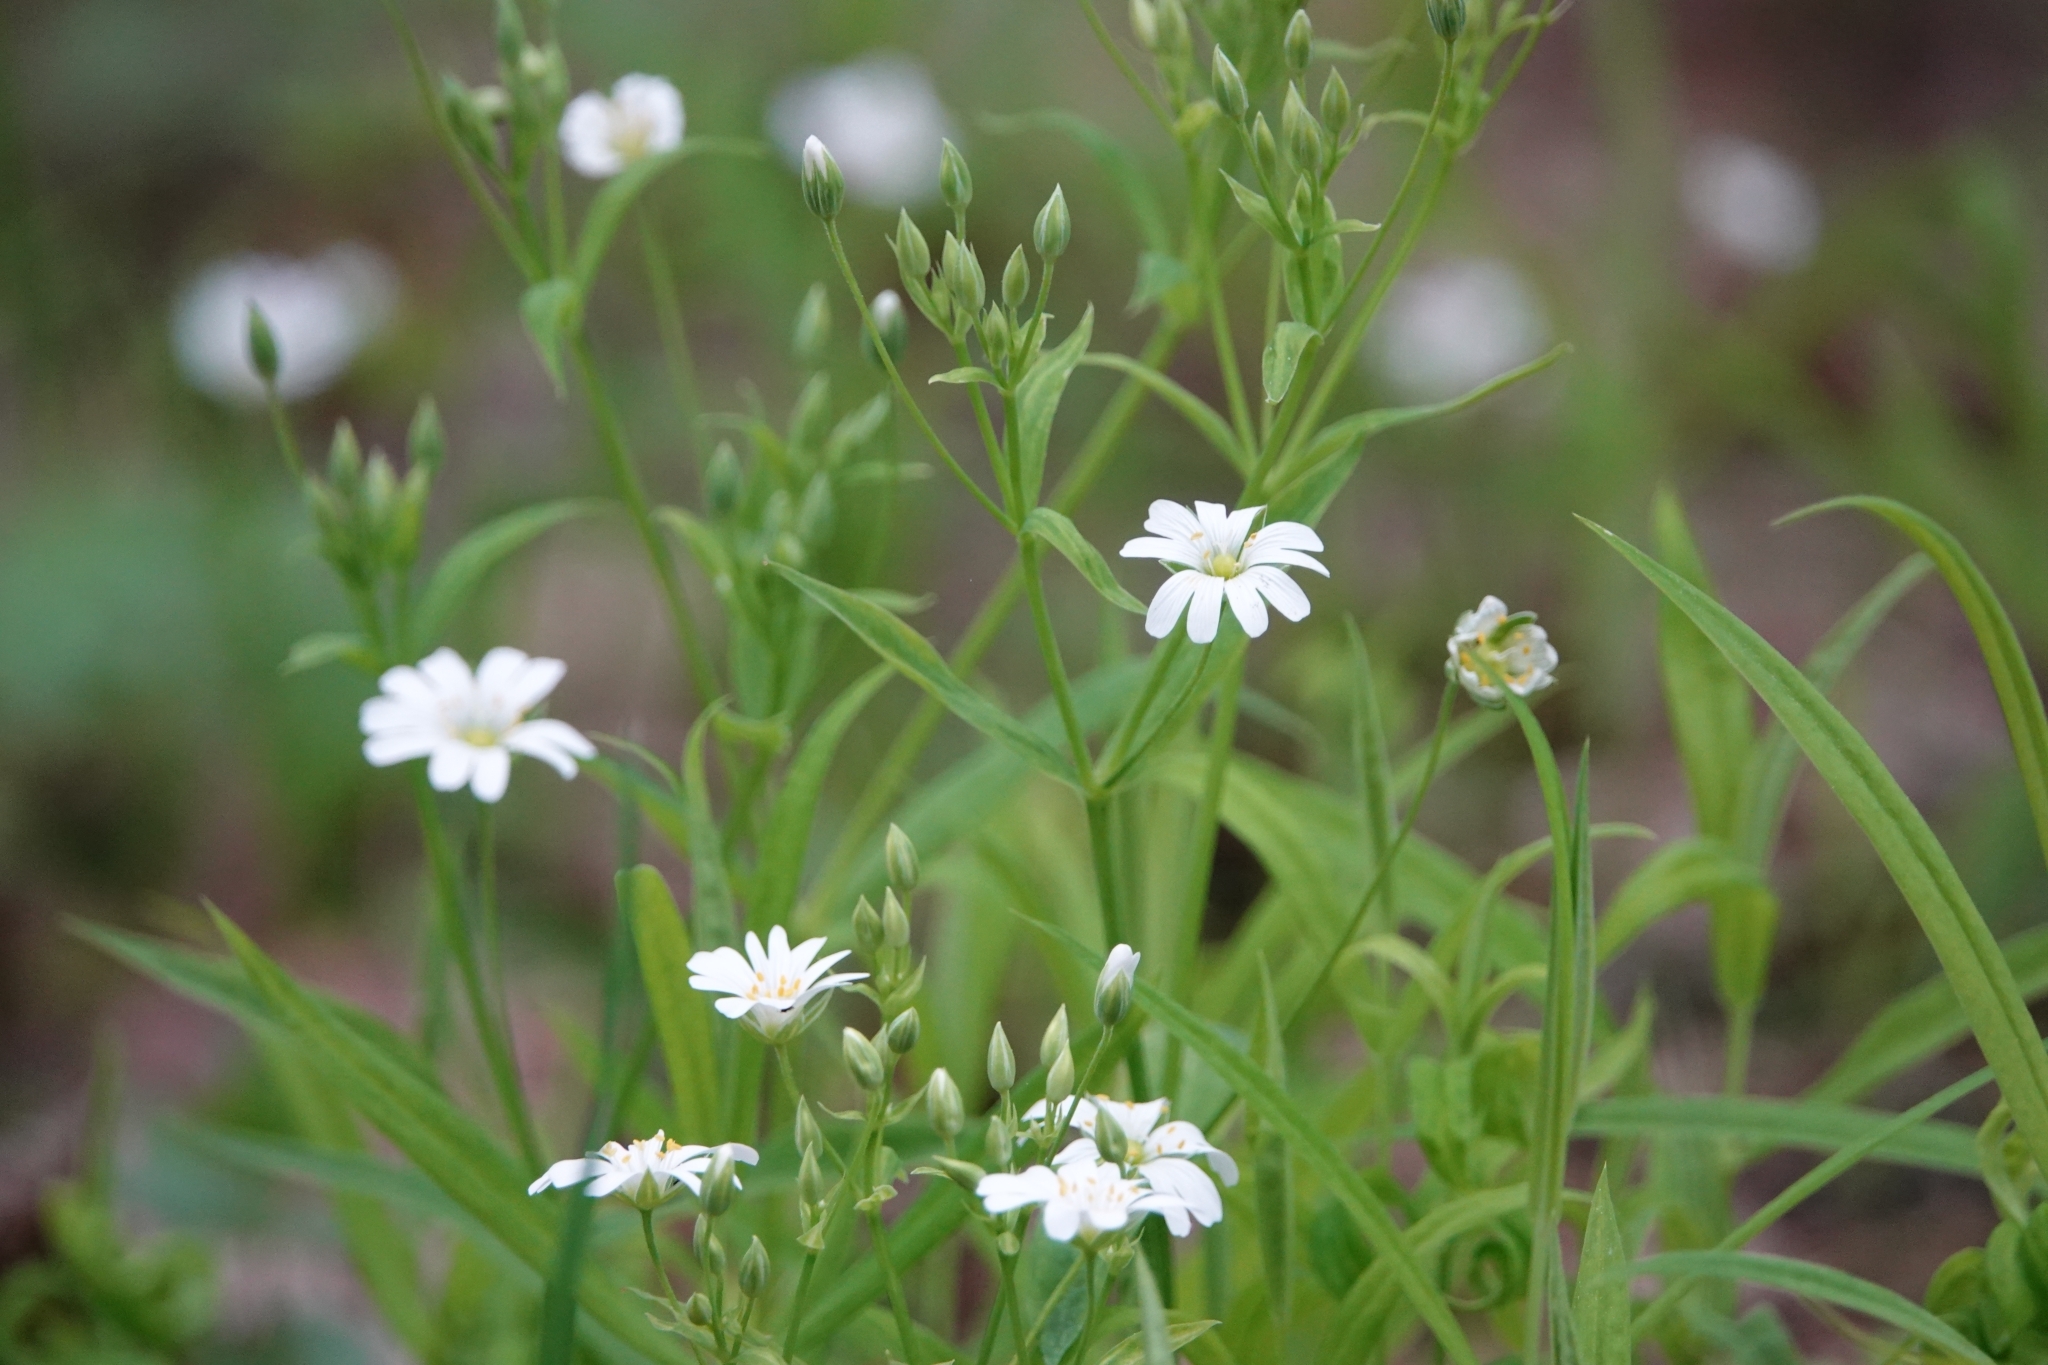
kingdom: Plantae
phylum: Tracheophyta
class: Magnoliopsida
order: Caryophyllales
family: Caryophyllaceae
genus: Rabelera
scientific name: Rabelera holostea
